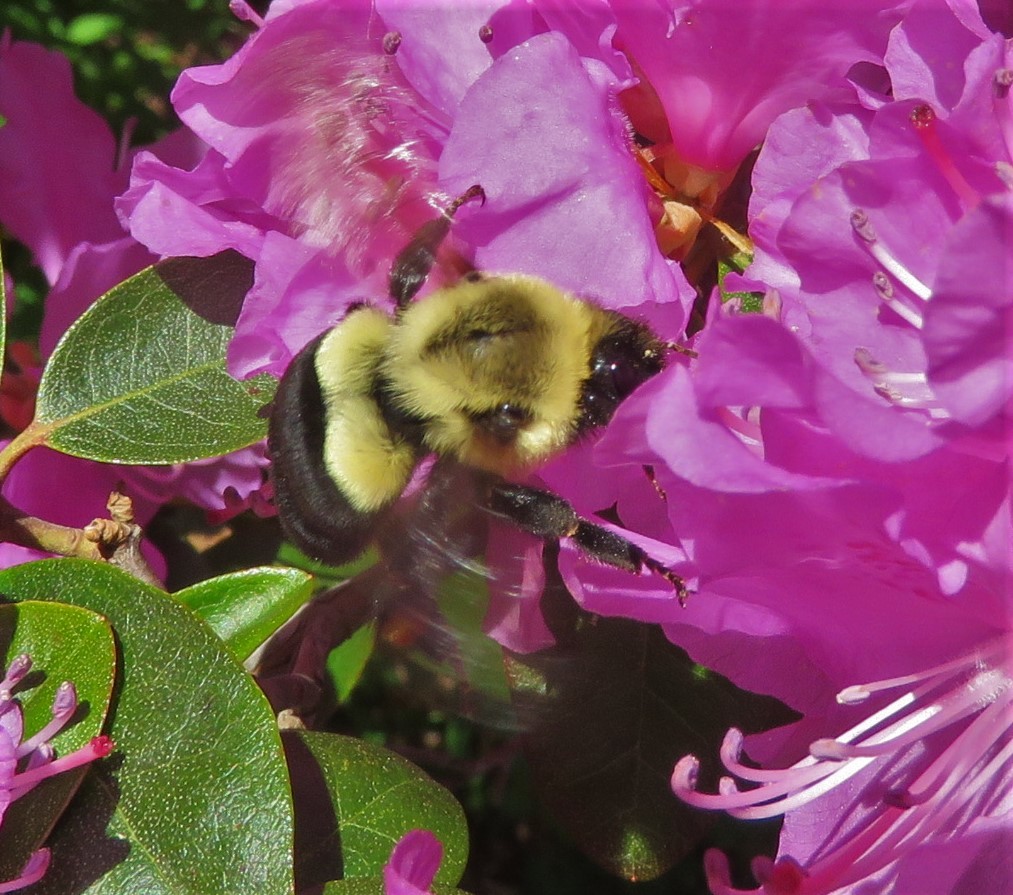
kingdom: Animalia
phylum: Arthropoda
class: Insecta
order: Hymenoptera
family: Apidae
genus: Bombus
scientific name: Bombus impatiens
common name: Common eastern bumble bee
